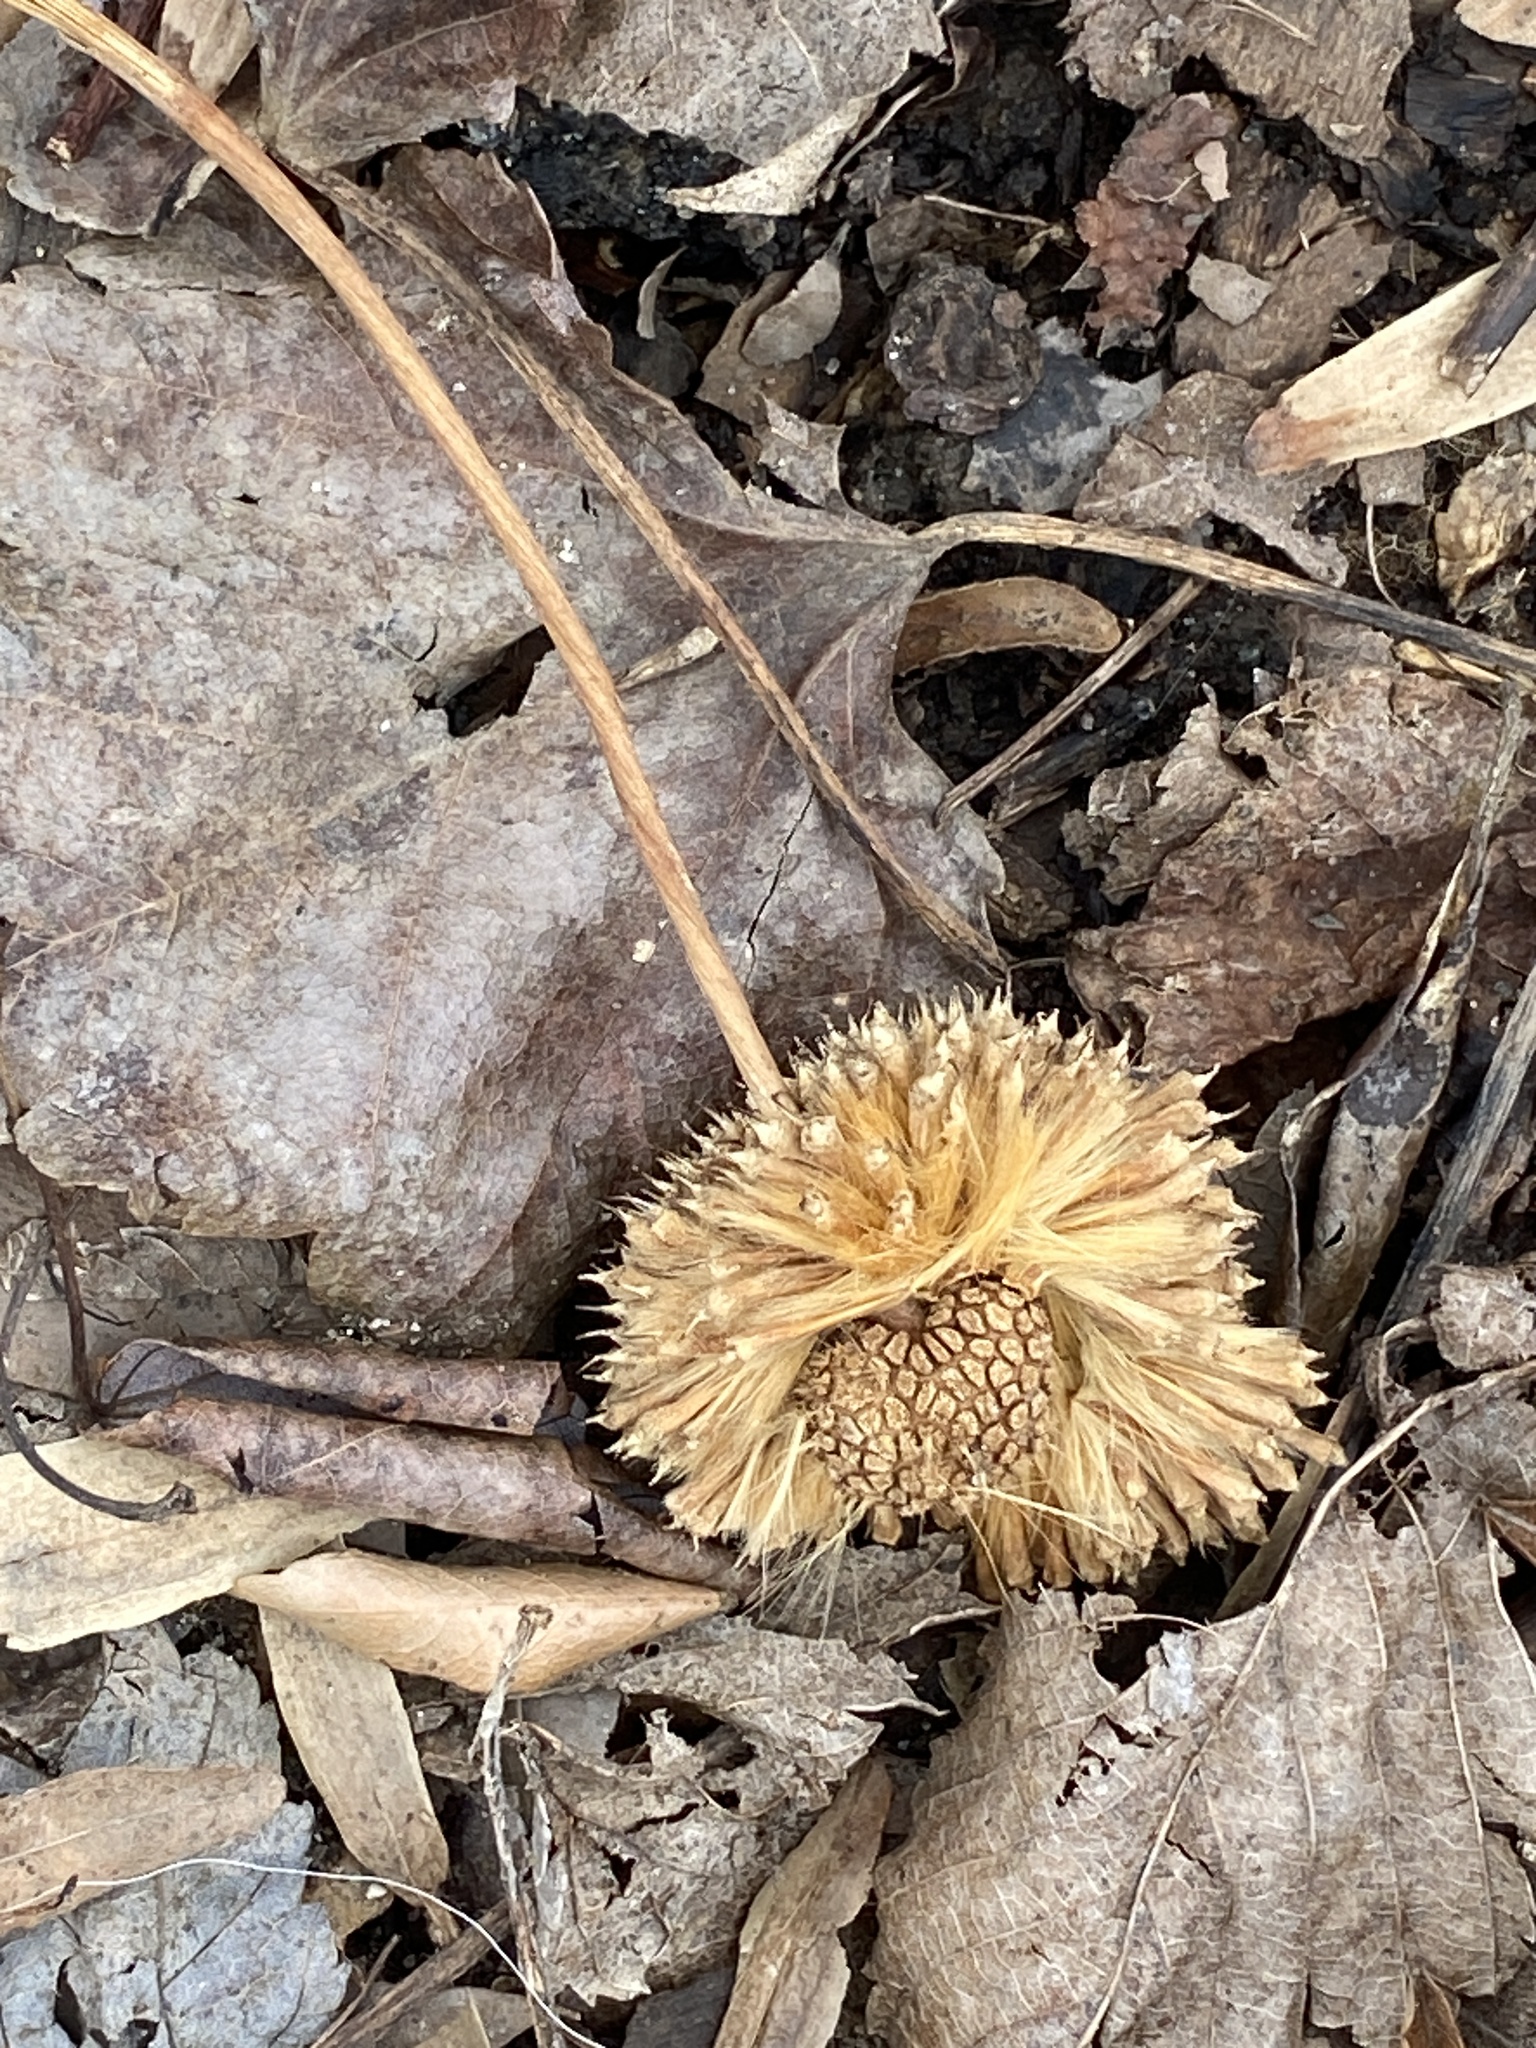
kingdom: Plantae
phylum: Tracheophyta
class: Magnoliopsida
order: Proteales
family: Platanaceae
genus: Platanus
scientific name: Platanus occidentalis
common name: American sycamore
